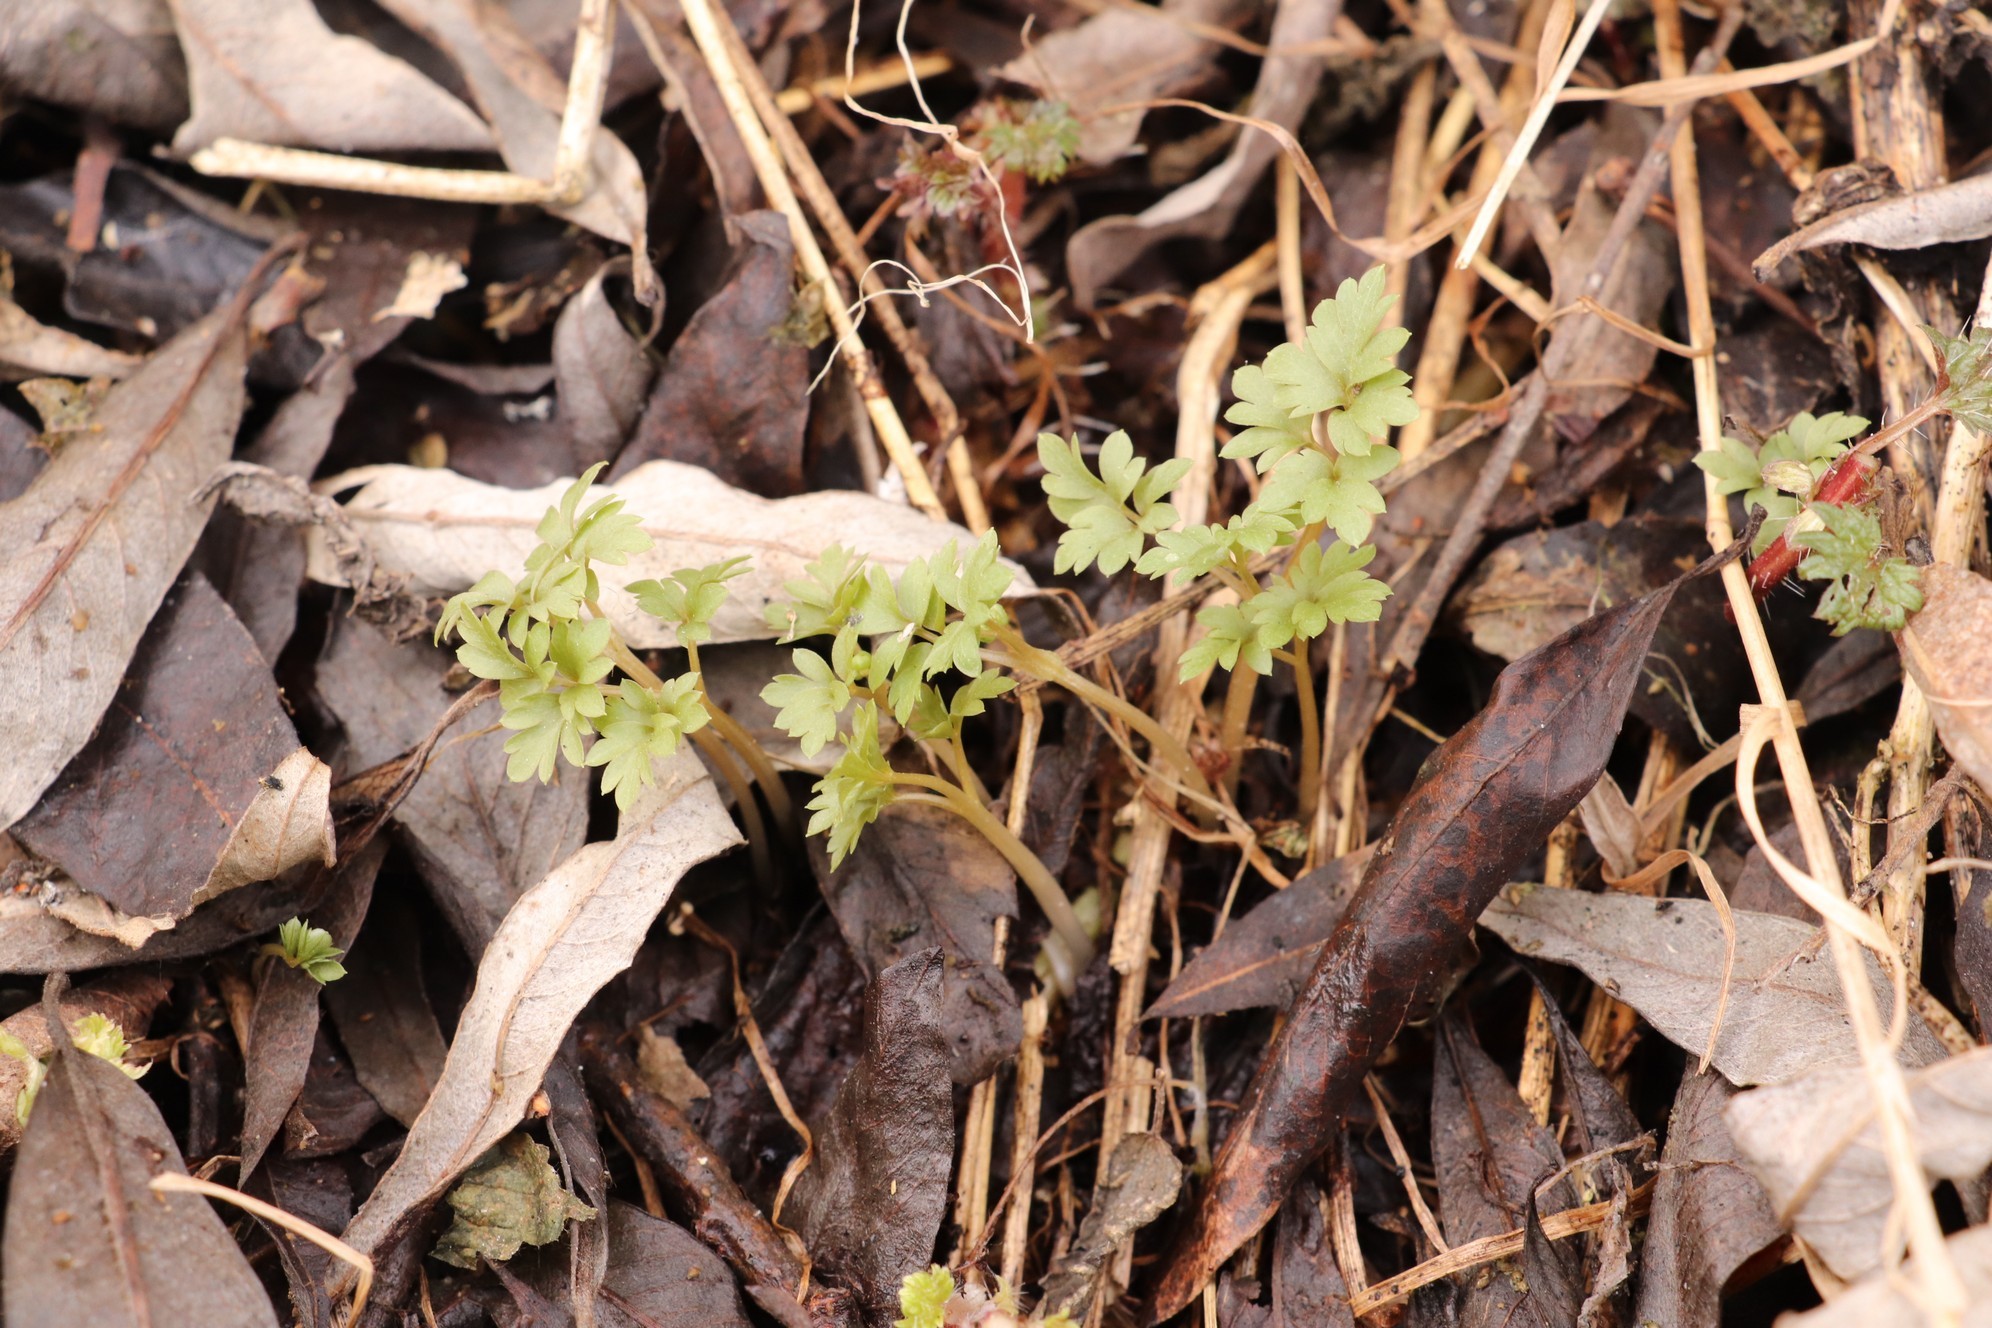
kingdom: Plantae
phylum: Tracheophyta
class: Magnoliopsida
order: Dipsacales
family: Viburnaceae
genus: Adoxa
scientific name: Adoxa moschatellina
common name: Moschatel
